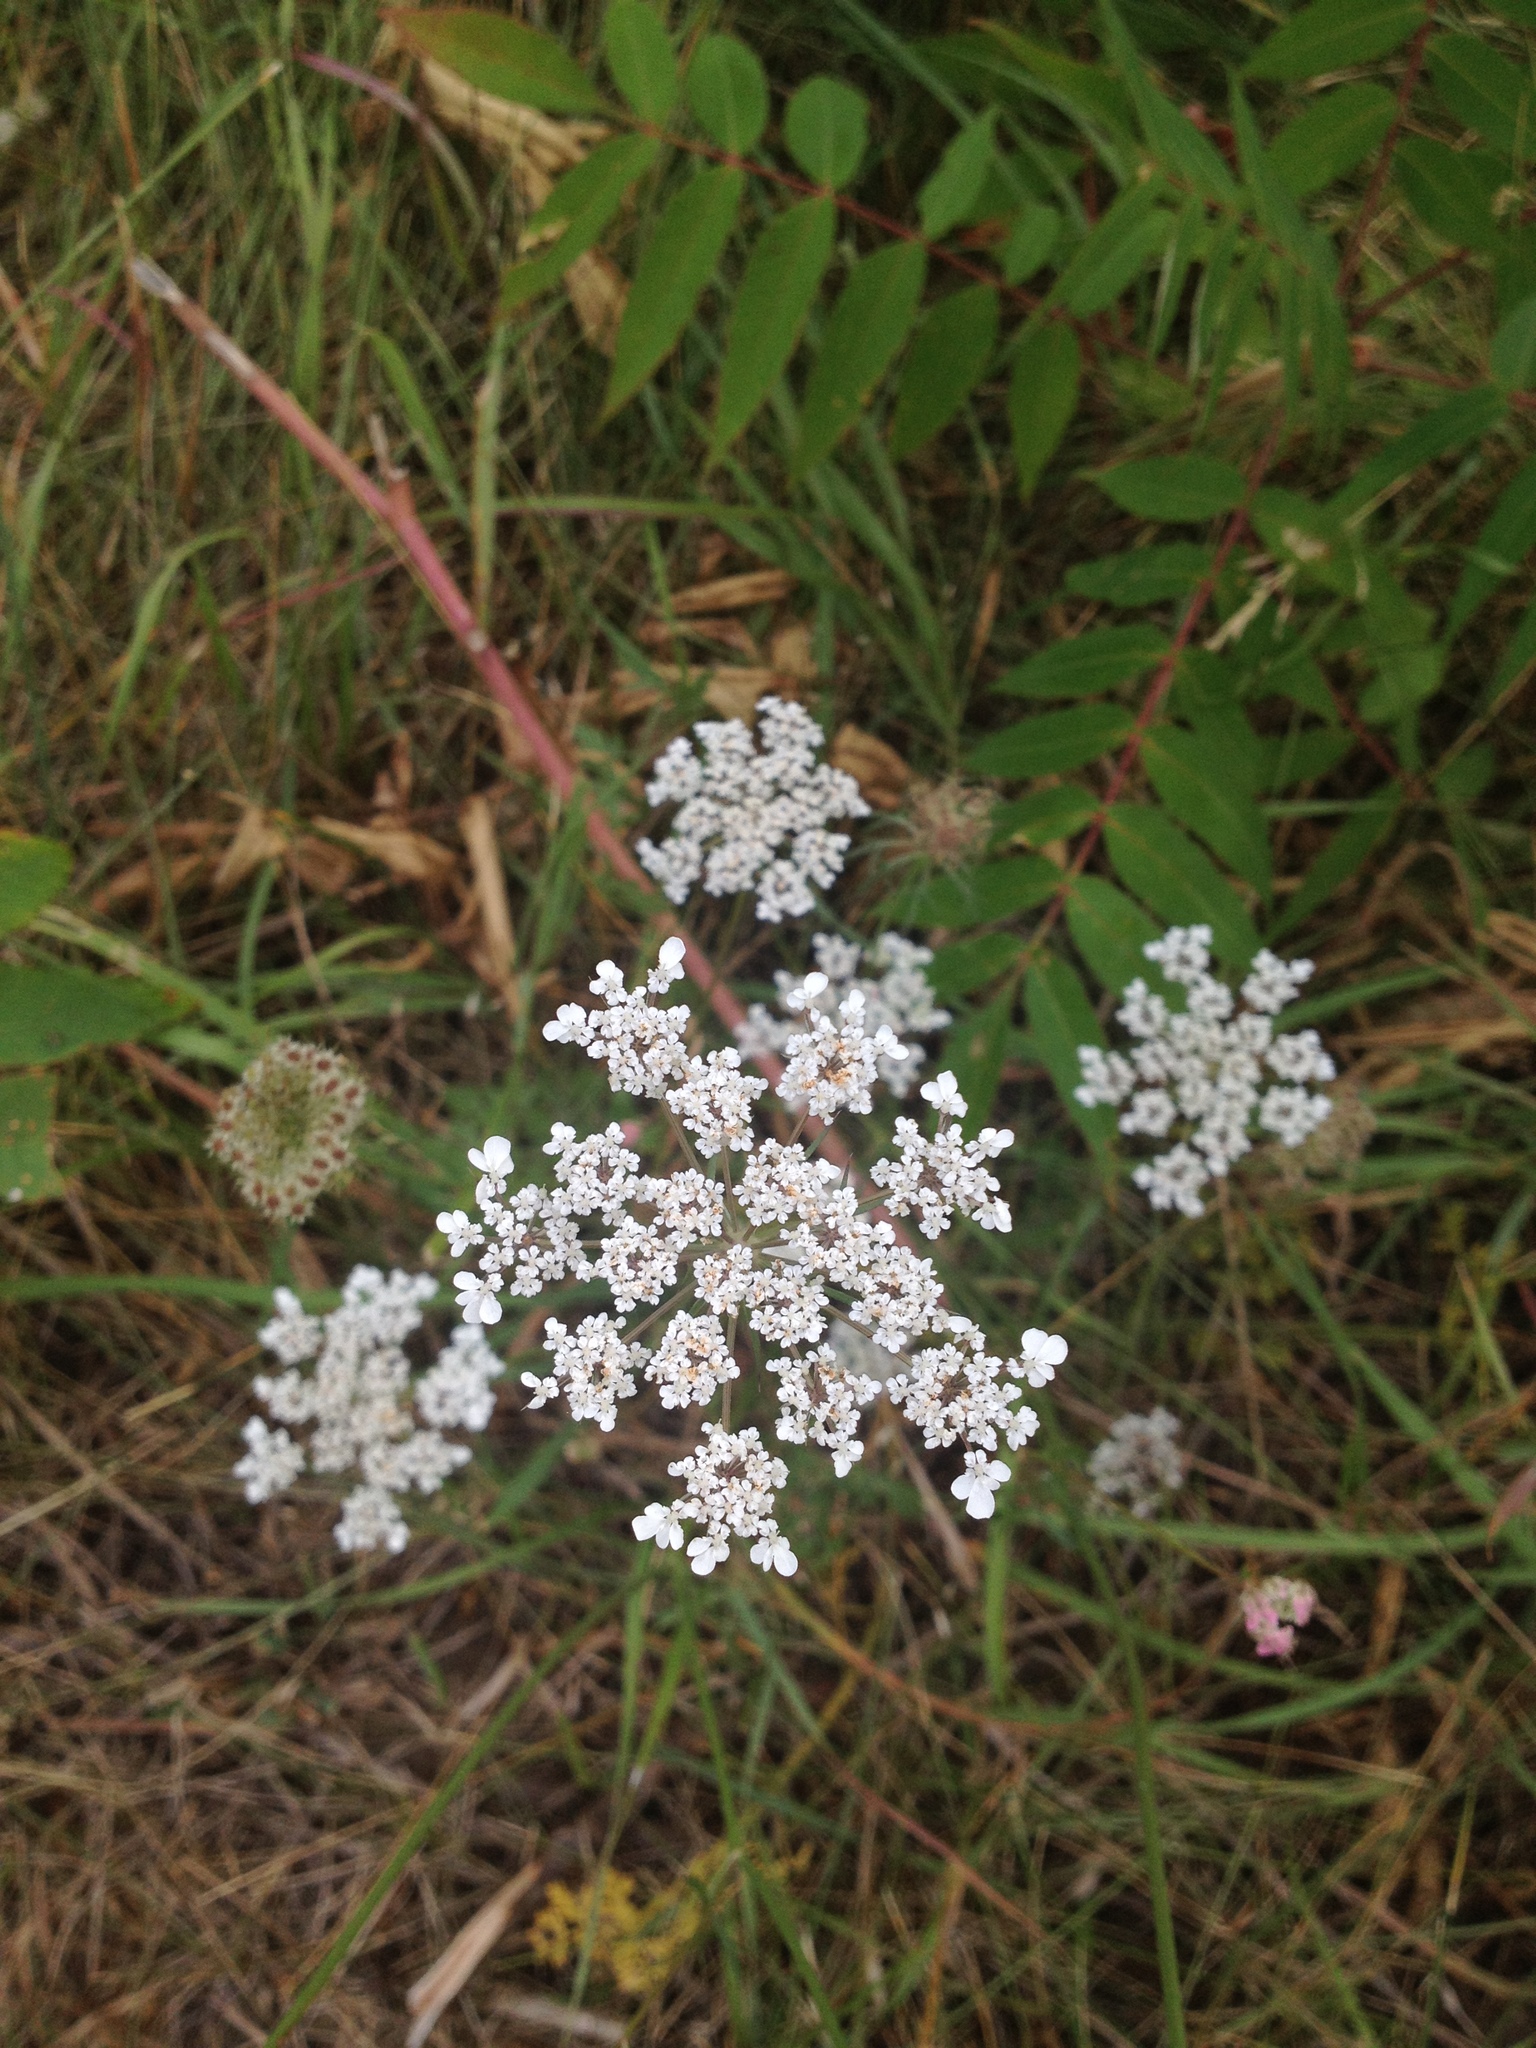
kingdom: Plantae
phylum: Tracheophyta
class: Magnoliopsida
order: Apiales
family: Apiaceae
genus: Daucus
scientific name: Daucus carota
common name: Wild carrot
